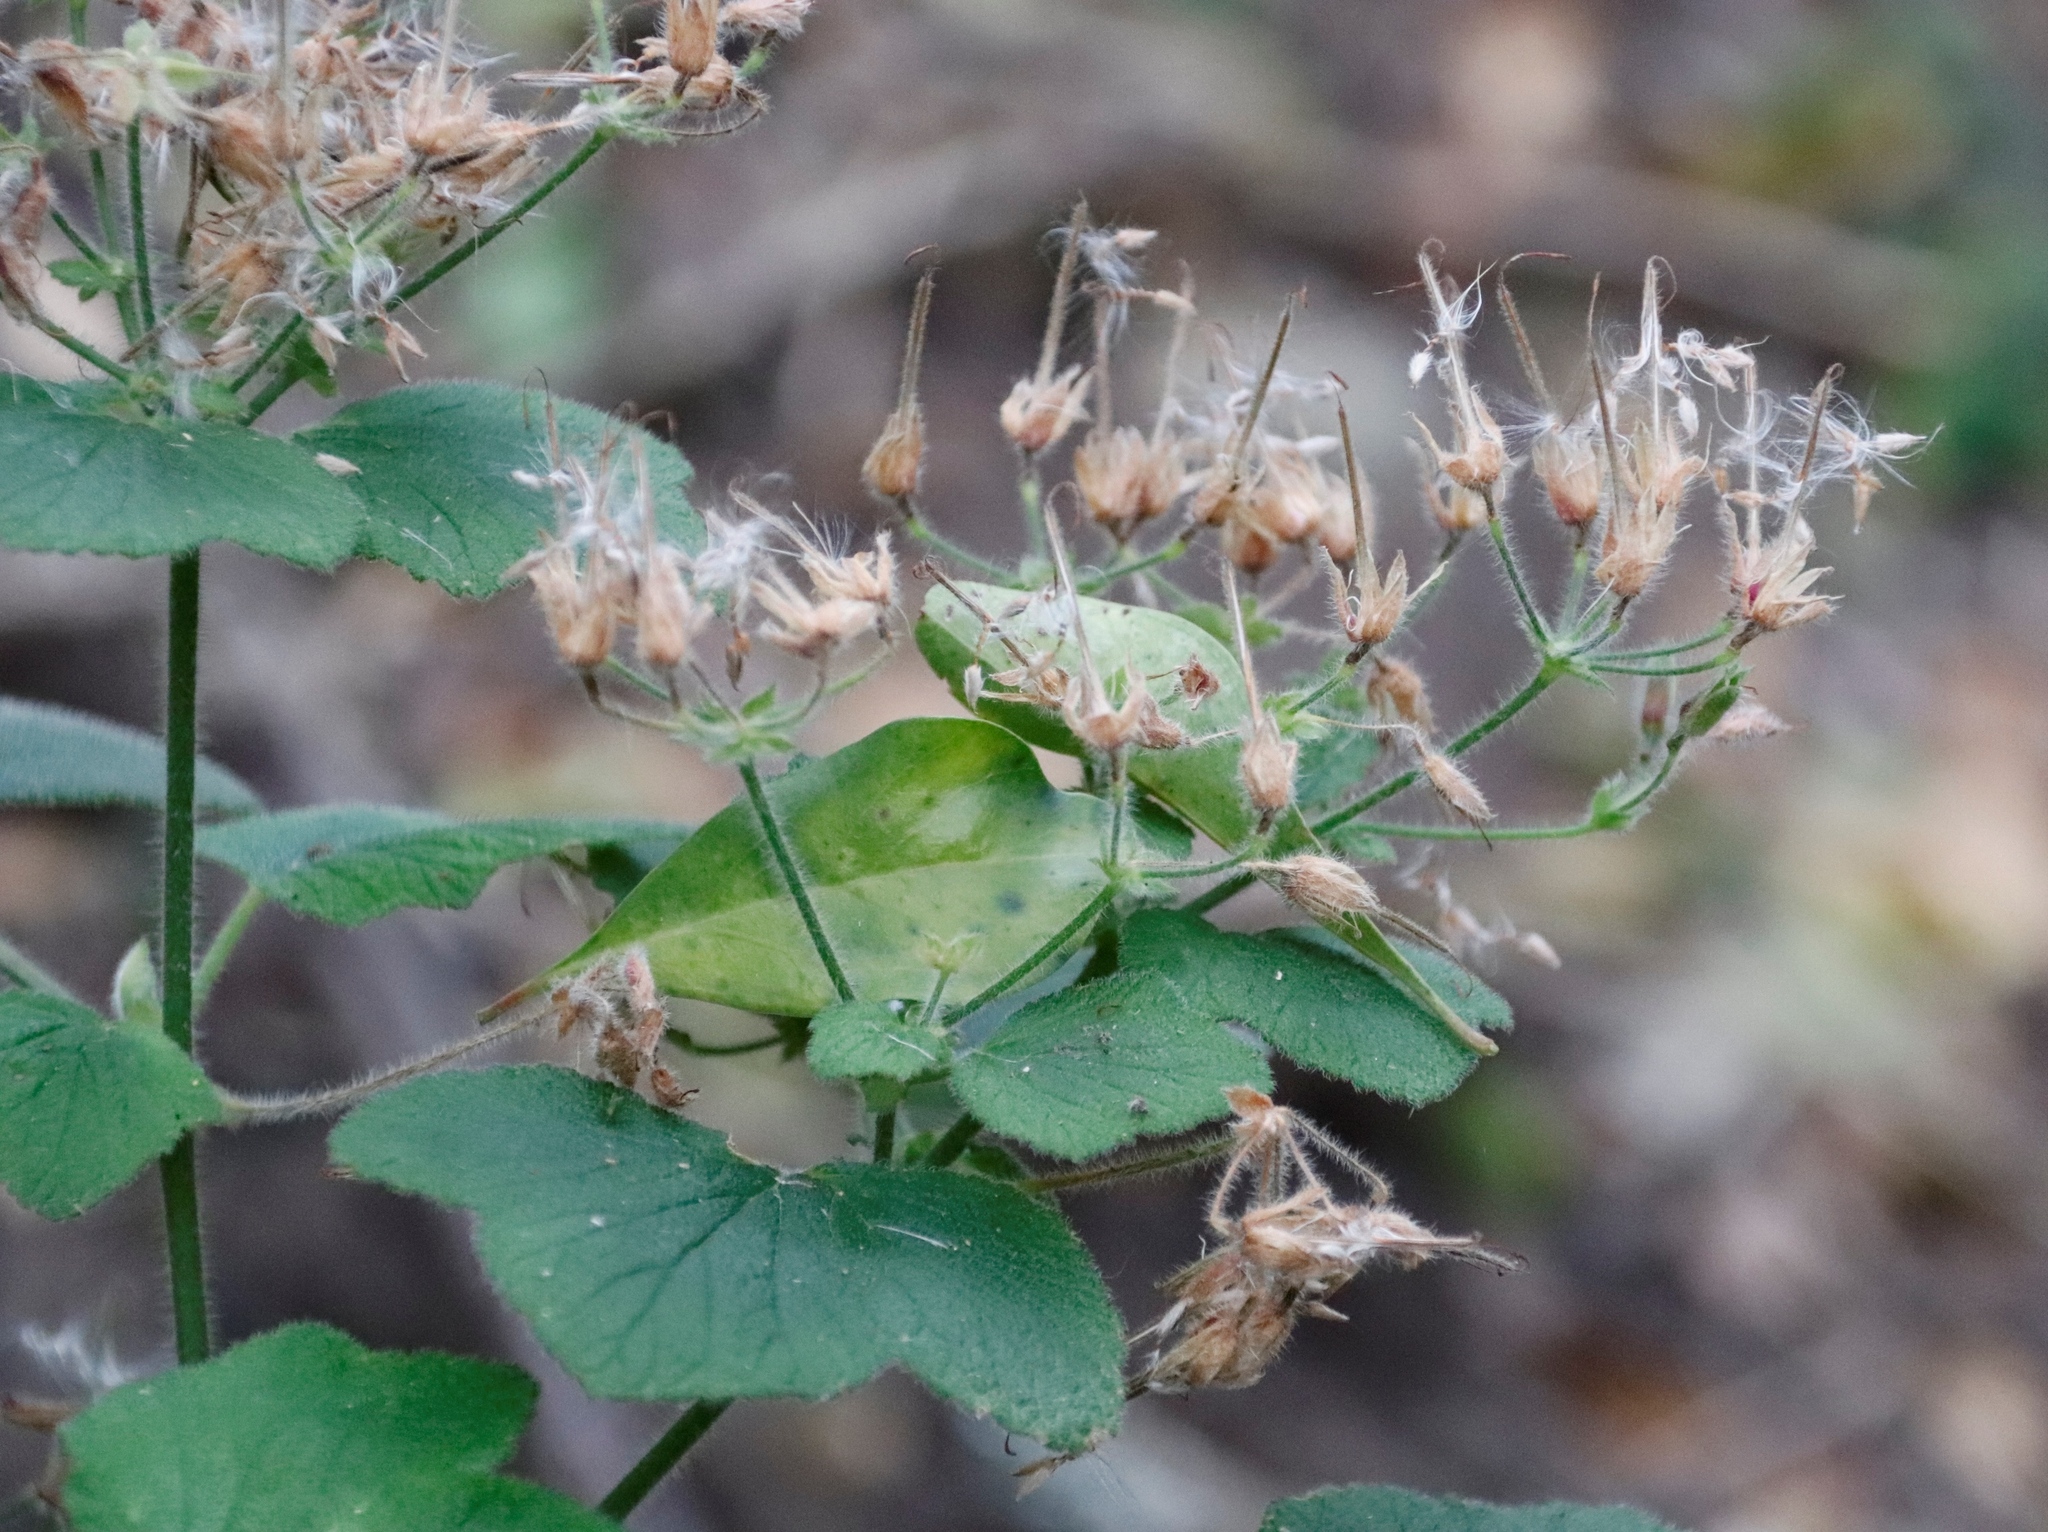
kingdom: Plantae
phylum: Tracheophyta
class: Magnoliopsida
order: Geraniales
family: Geraniaceae
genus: Pelargonium
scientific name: Pelargonium papilionaceum
